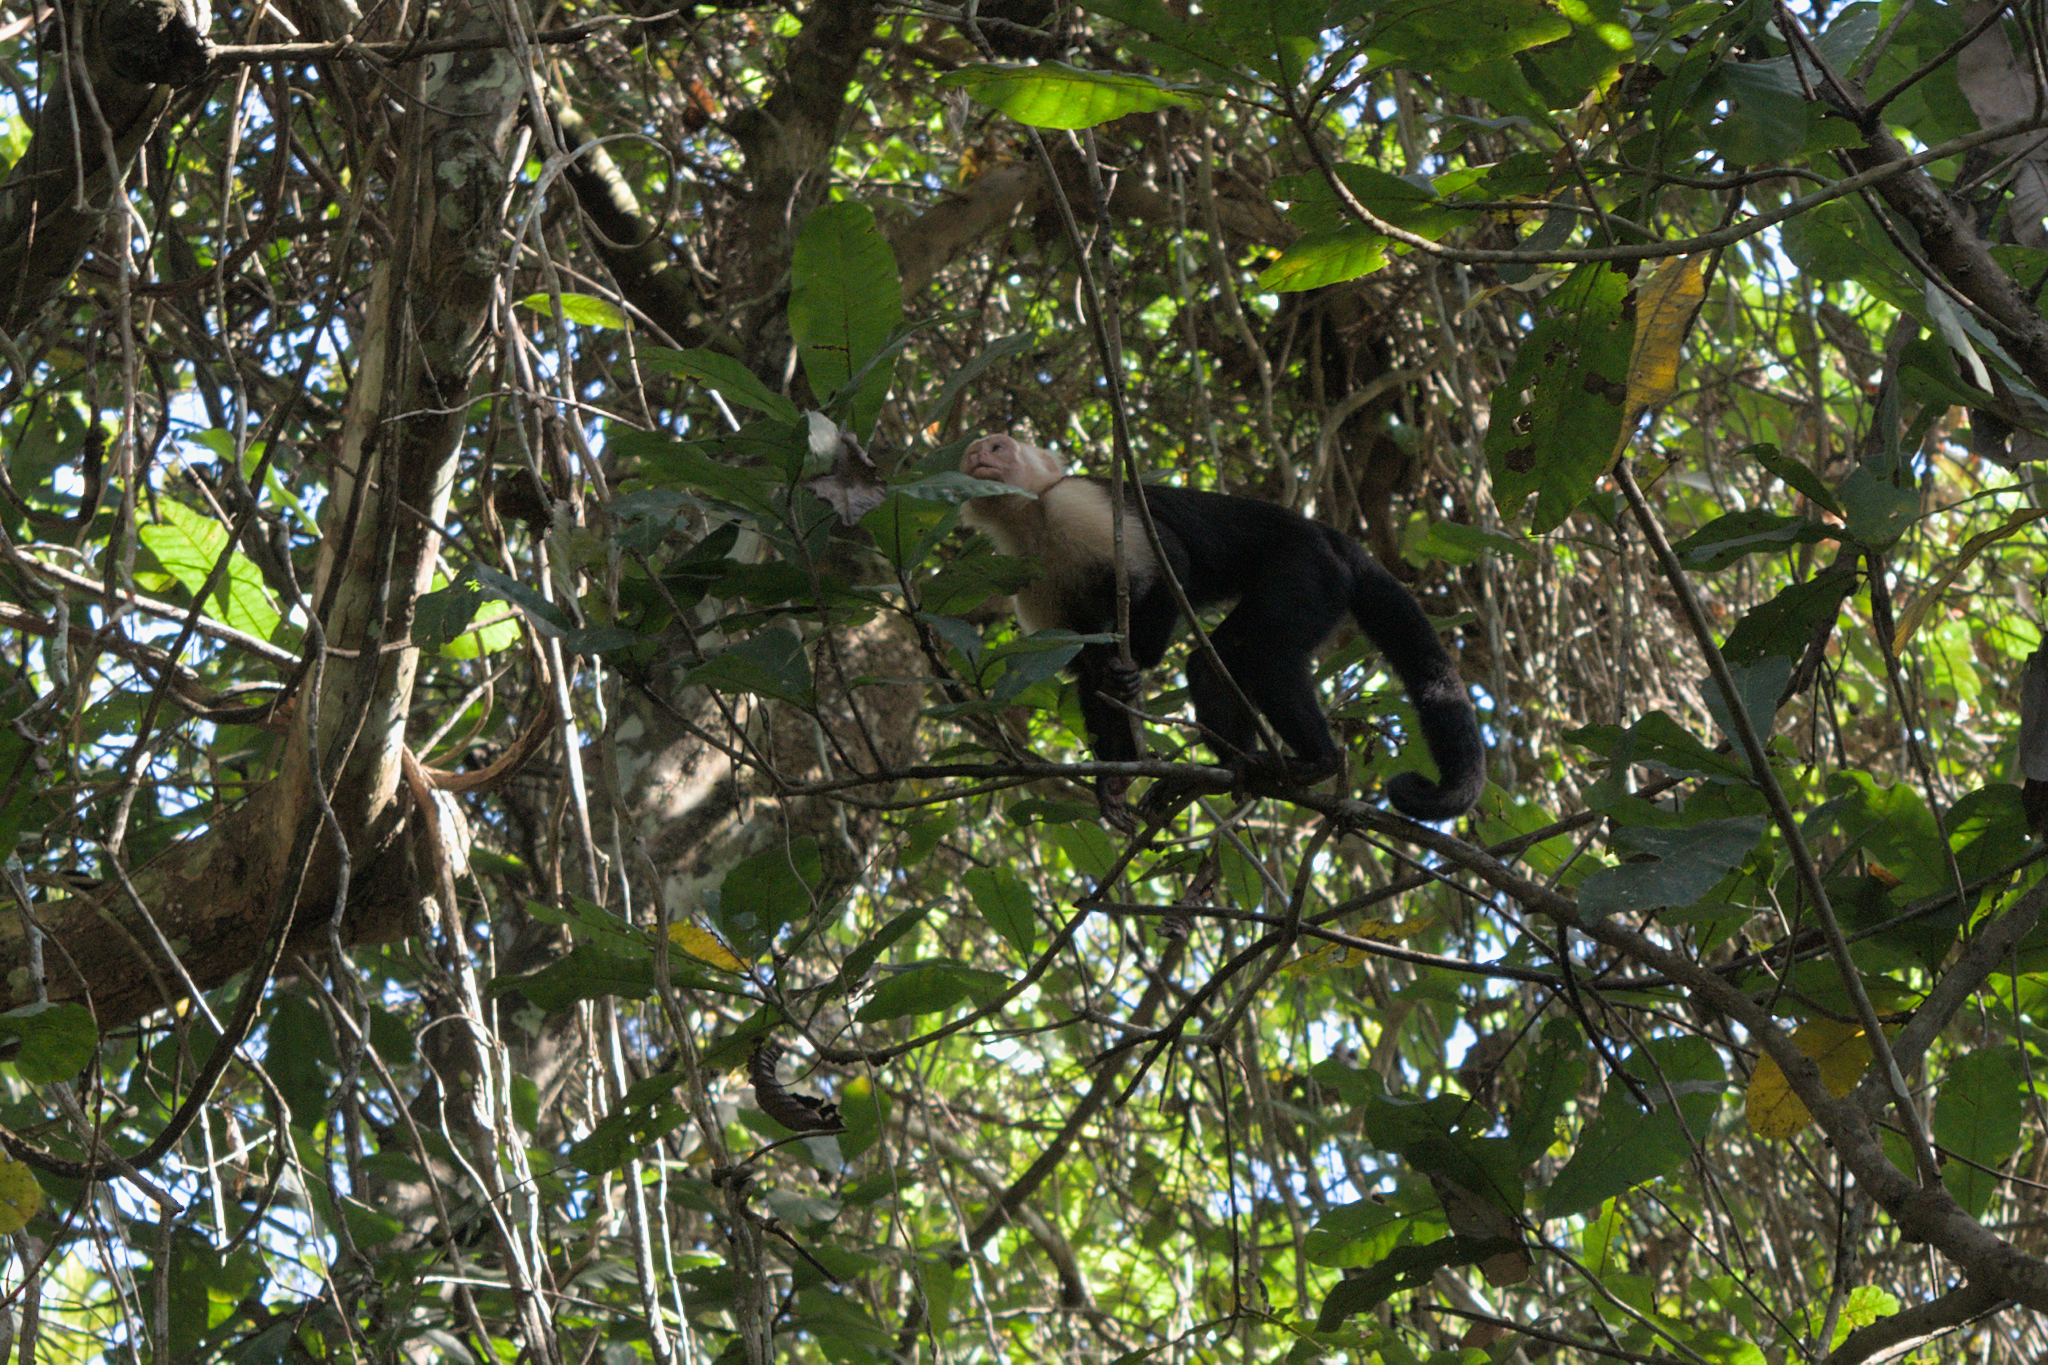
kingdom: Animalia
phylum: Chordata
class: Mammalia
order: Primates
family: Cebidae
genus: Cebus
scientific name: Cebus imitator
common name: Panamanian white-faced capuchin
